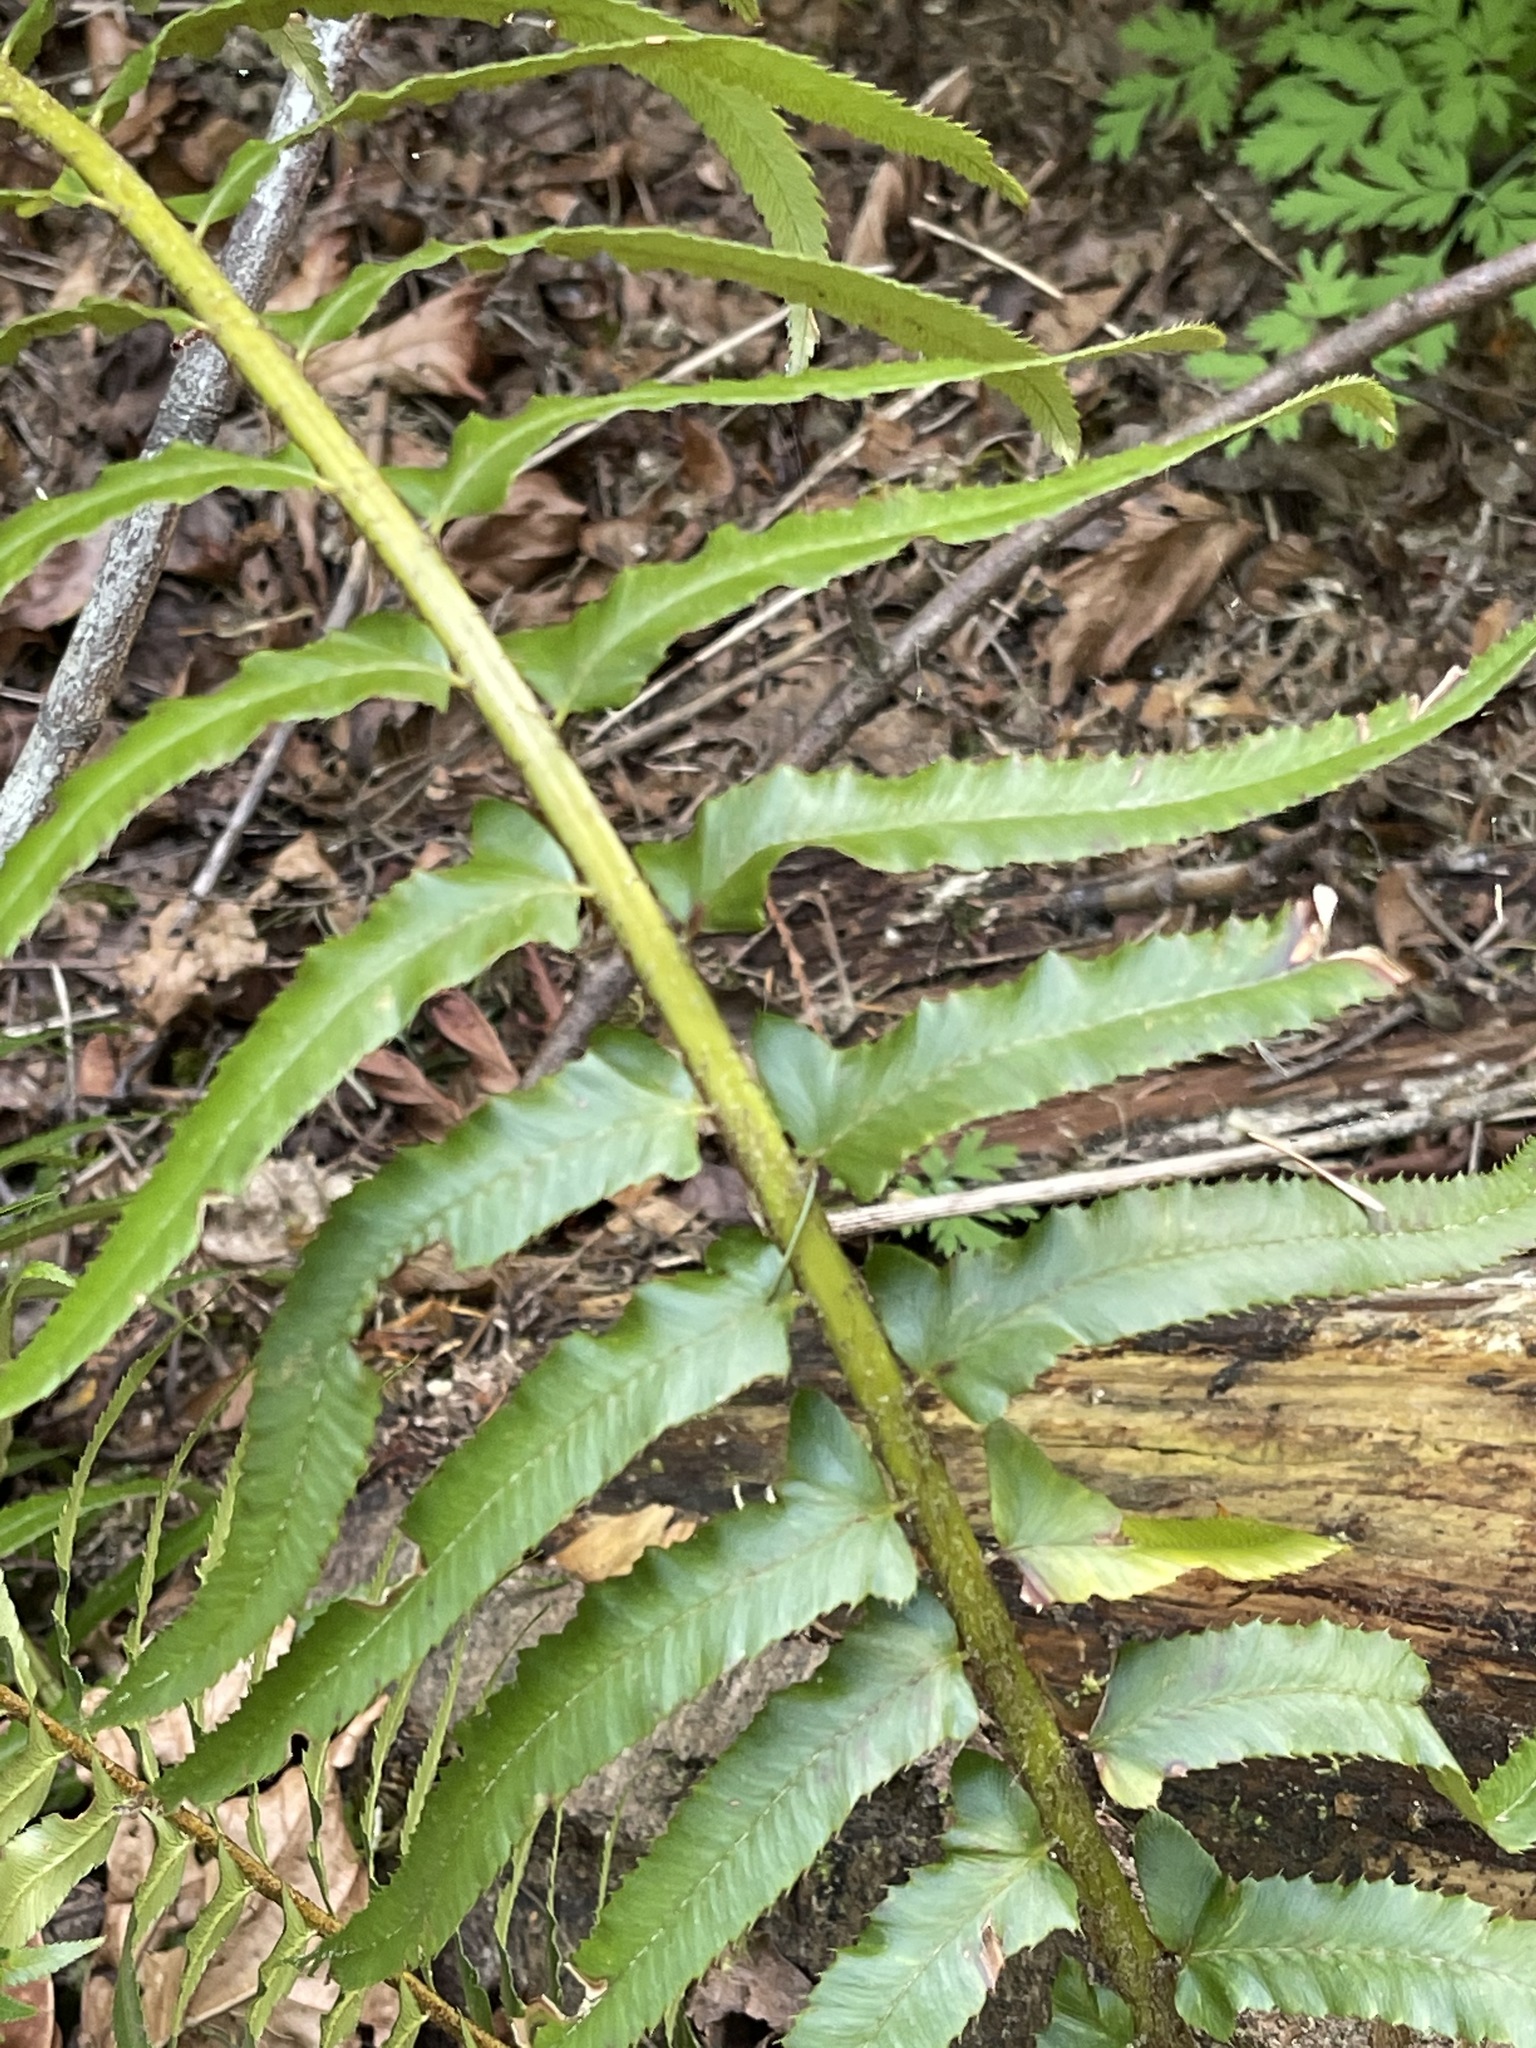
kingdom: Plantae
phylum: Tracheophyta
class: Polypodiopsida
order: Polypodiales
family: Dryopteridaceae
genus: Polystichum
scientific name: Polystichum munitum
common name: Western sword-fern
